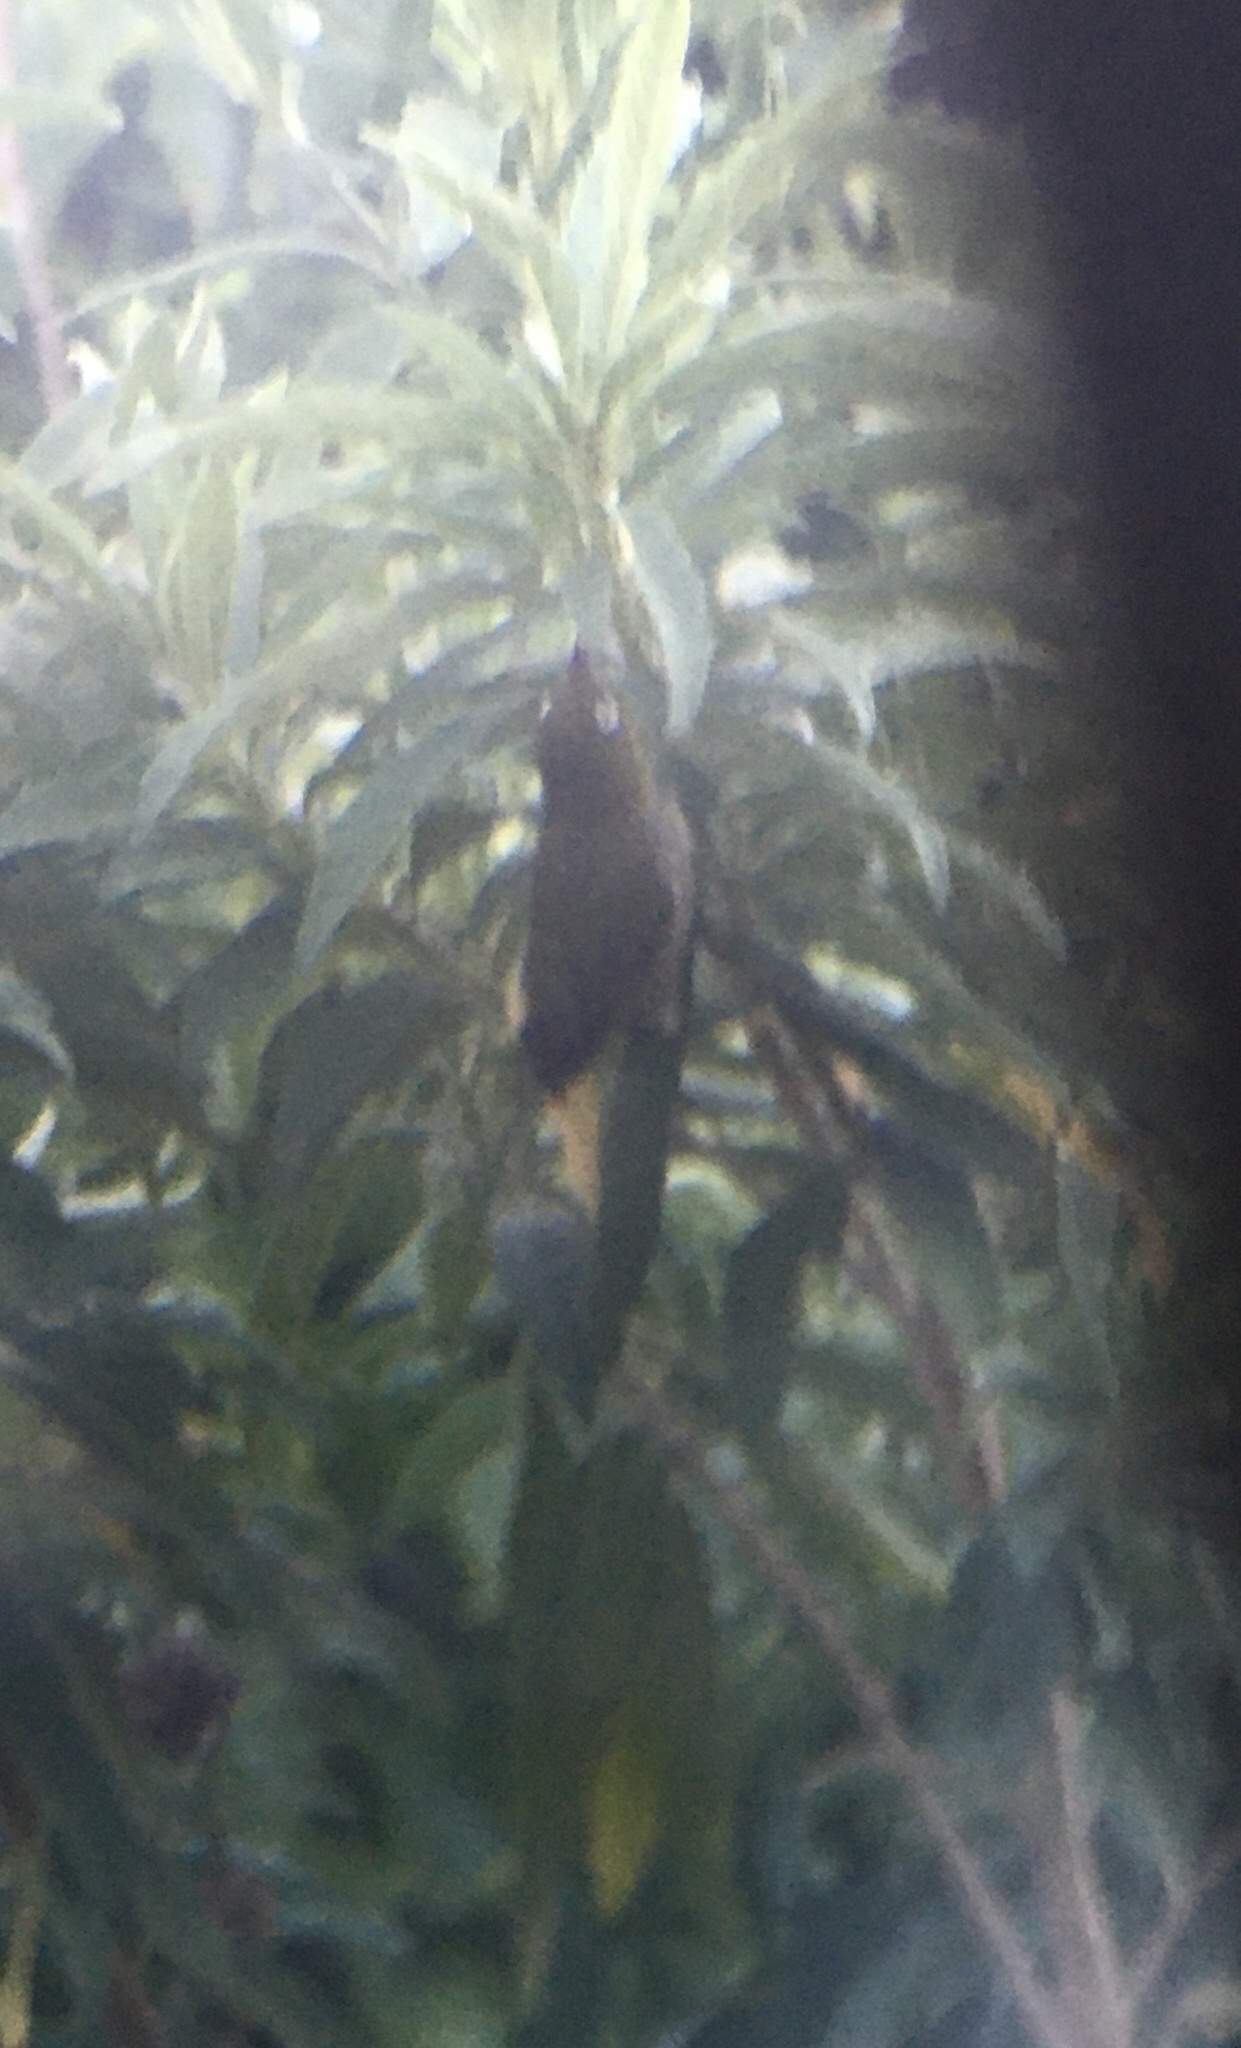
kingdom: Animalia
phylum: Chordata
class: Aves
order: Passeriformes
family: Zosteropidae
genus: Zosterops
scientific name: Zosterops virens
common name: Cape white-eye
